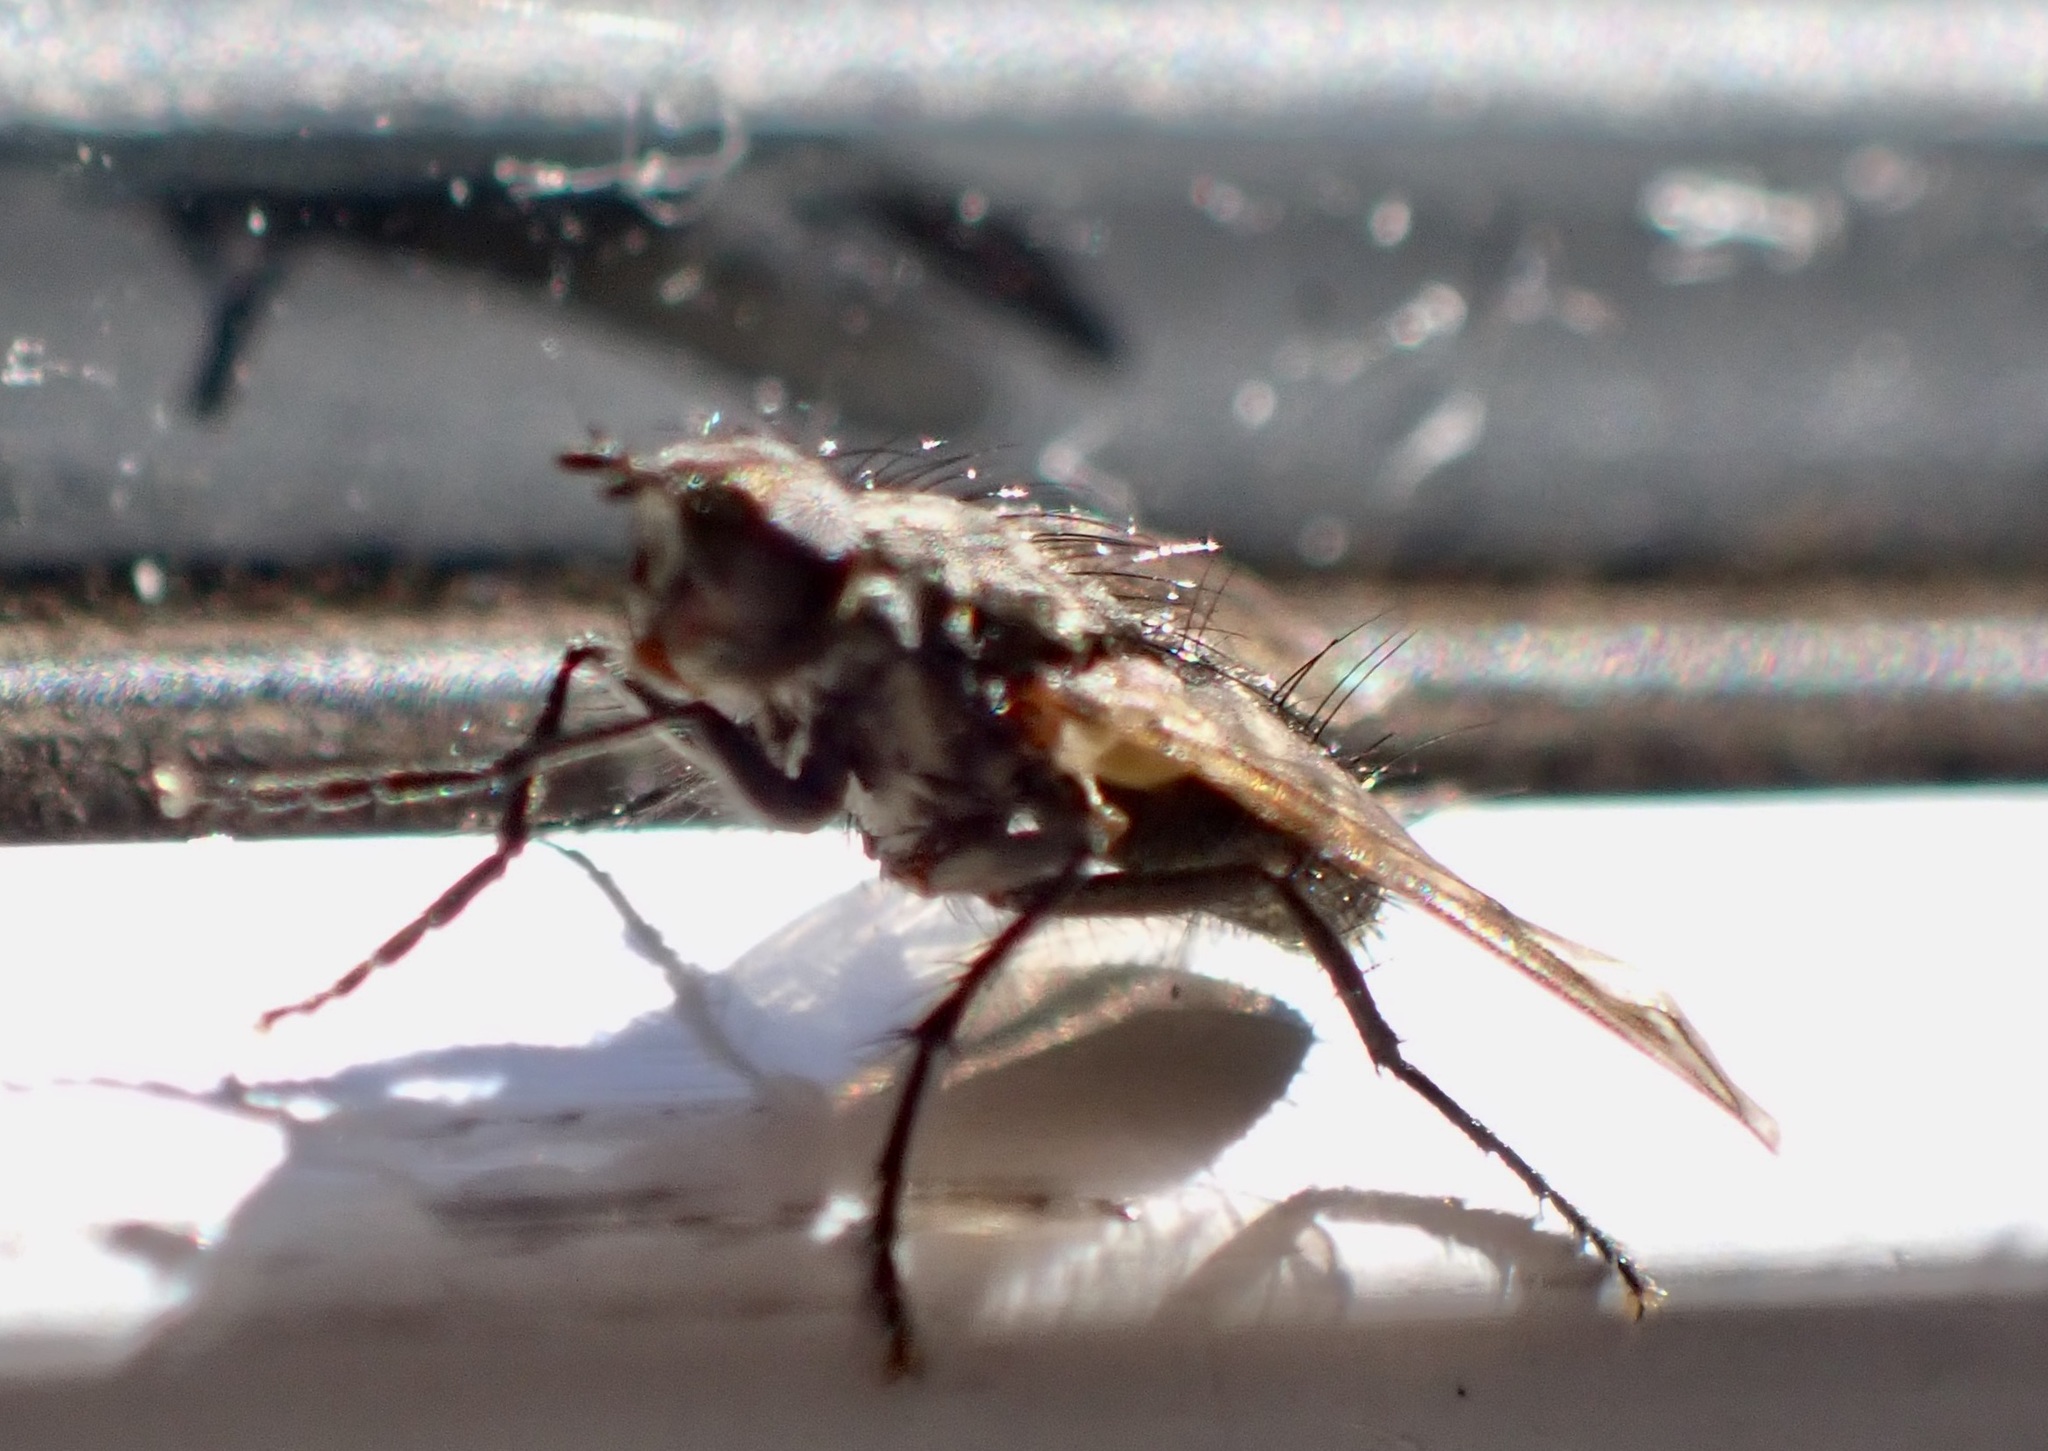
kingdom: Animalia
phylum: Arthropoda
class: Insecta
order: Diptera
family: Tachinidae
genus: Mallochomacquartia
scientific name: Mallochomacquartia vexata
